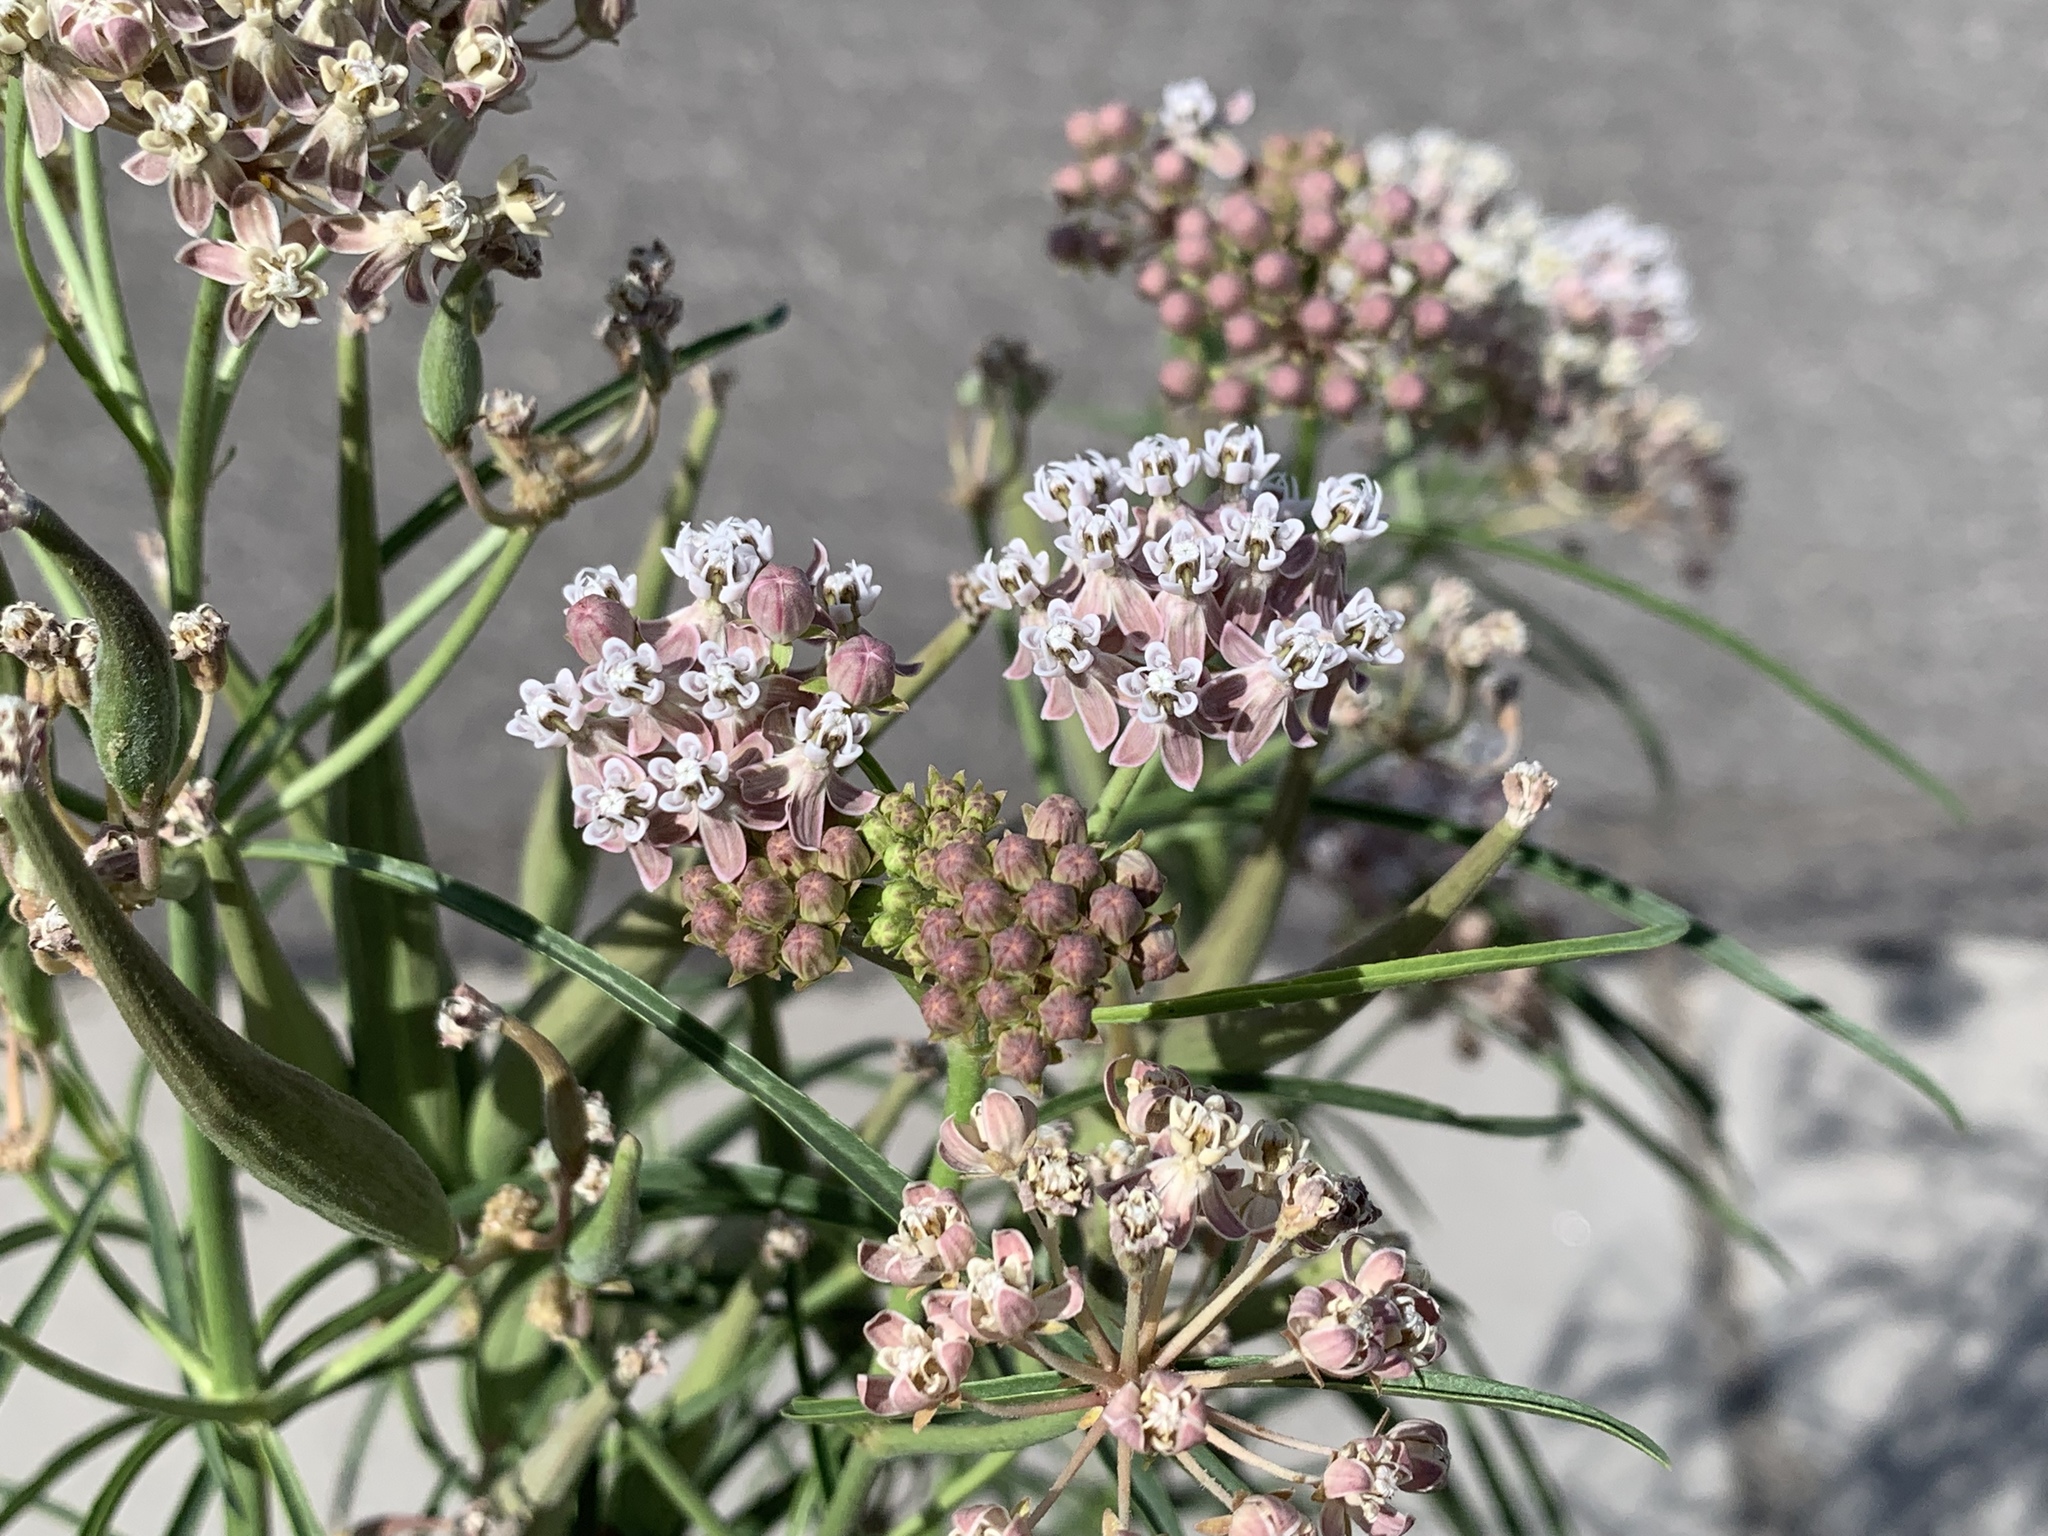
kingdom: Plantae
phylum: Tracheophyta
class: Magnoliopsida
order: Gentianales
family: Apocynaceae
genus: Asclepias
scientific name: Asclepias fascicularis
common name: Mexican milkweed
